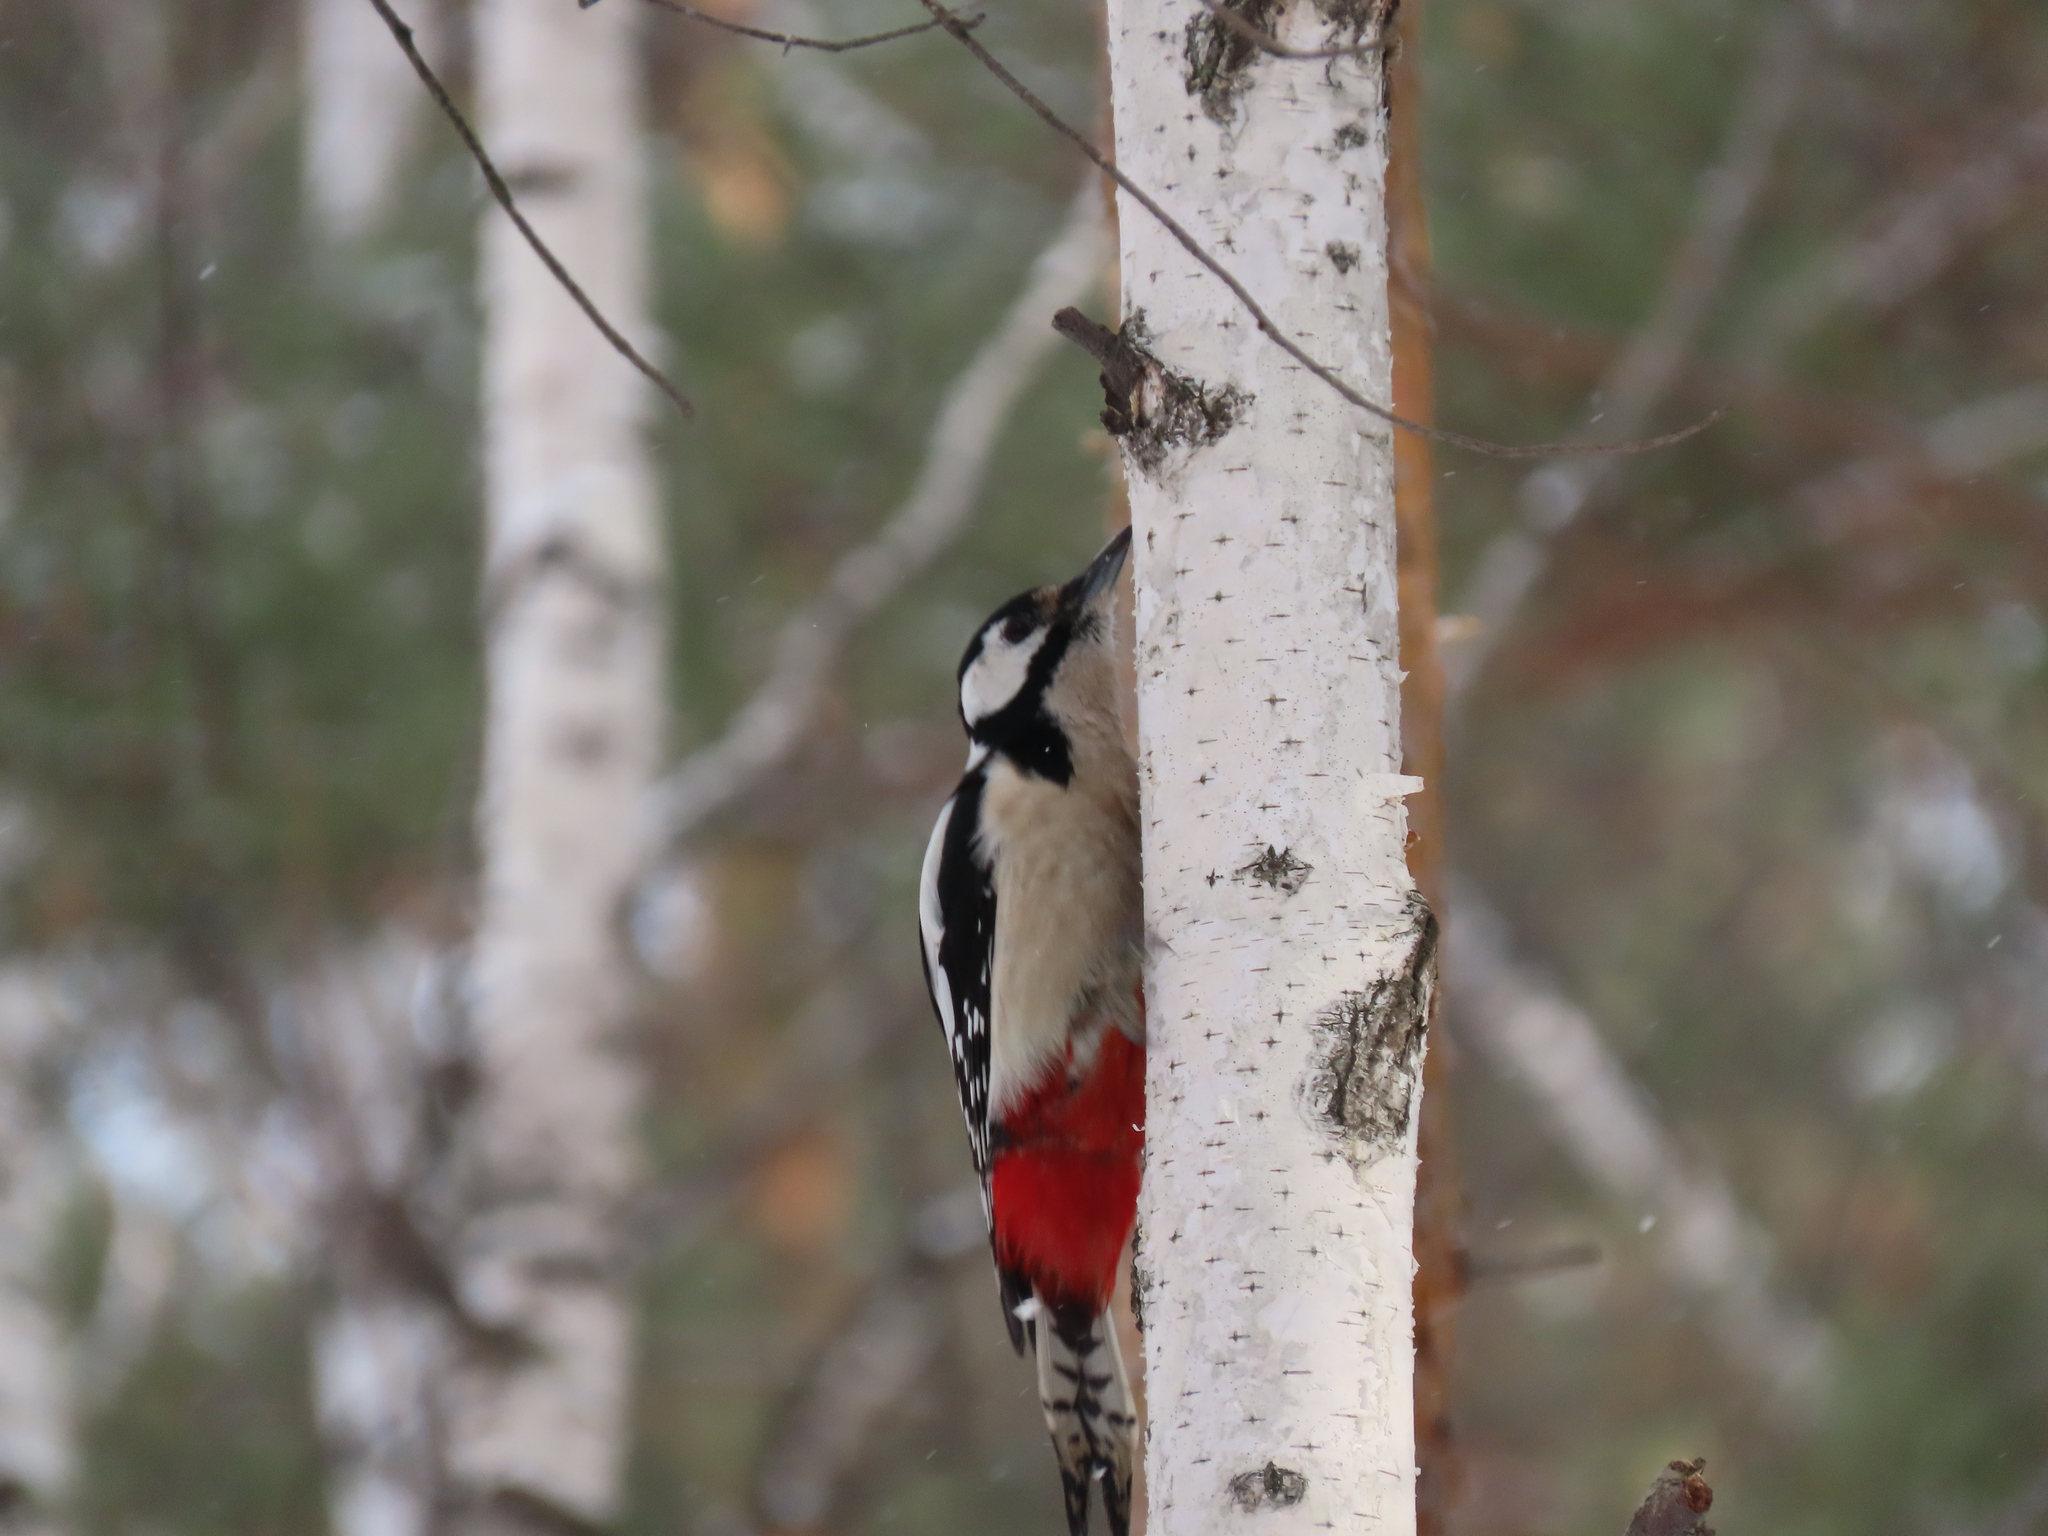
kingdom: Animalia
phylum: Chordata
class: Aves
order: Piciformes
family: Picidae
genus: Dendrocopos
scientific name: Dendrocopos major
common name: Great spotted woodpecker
